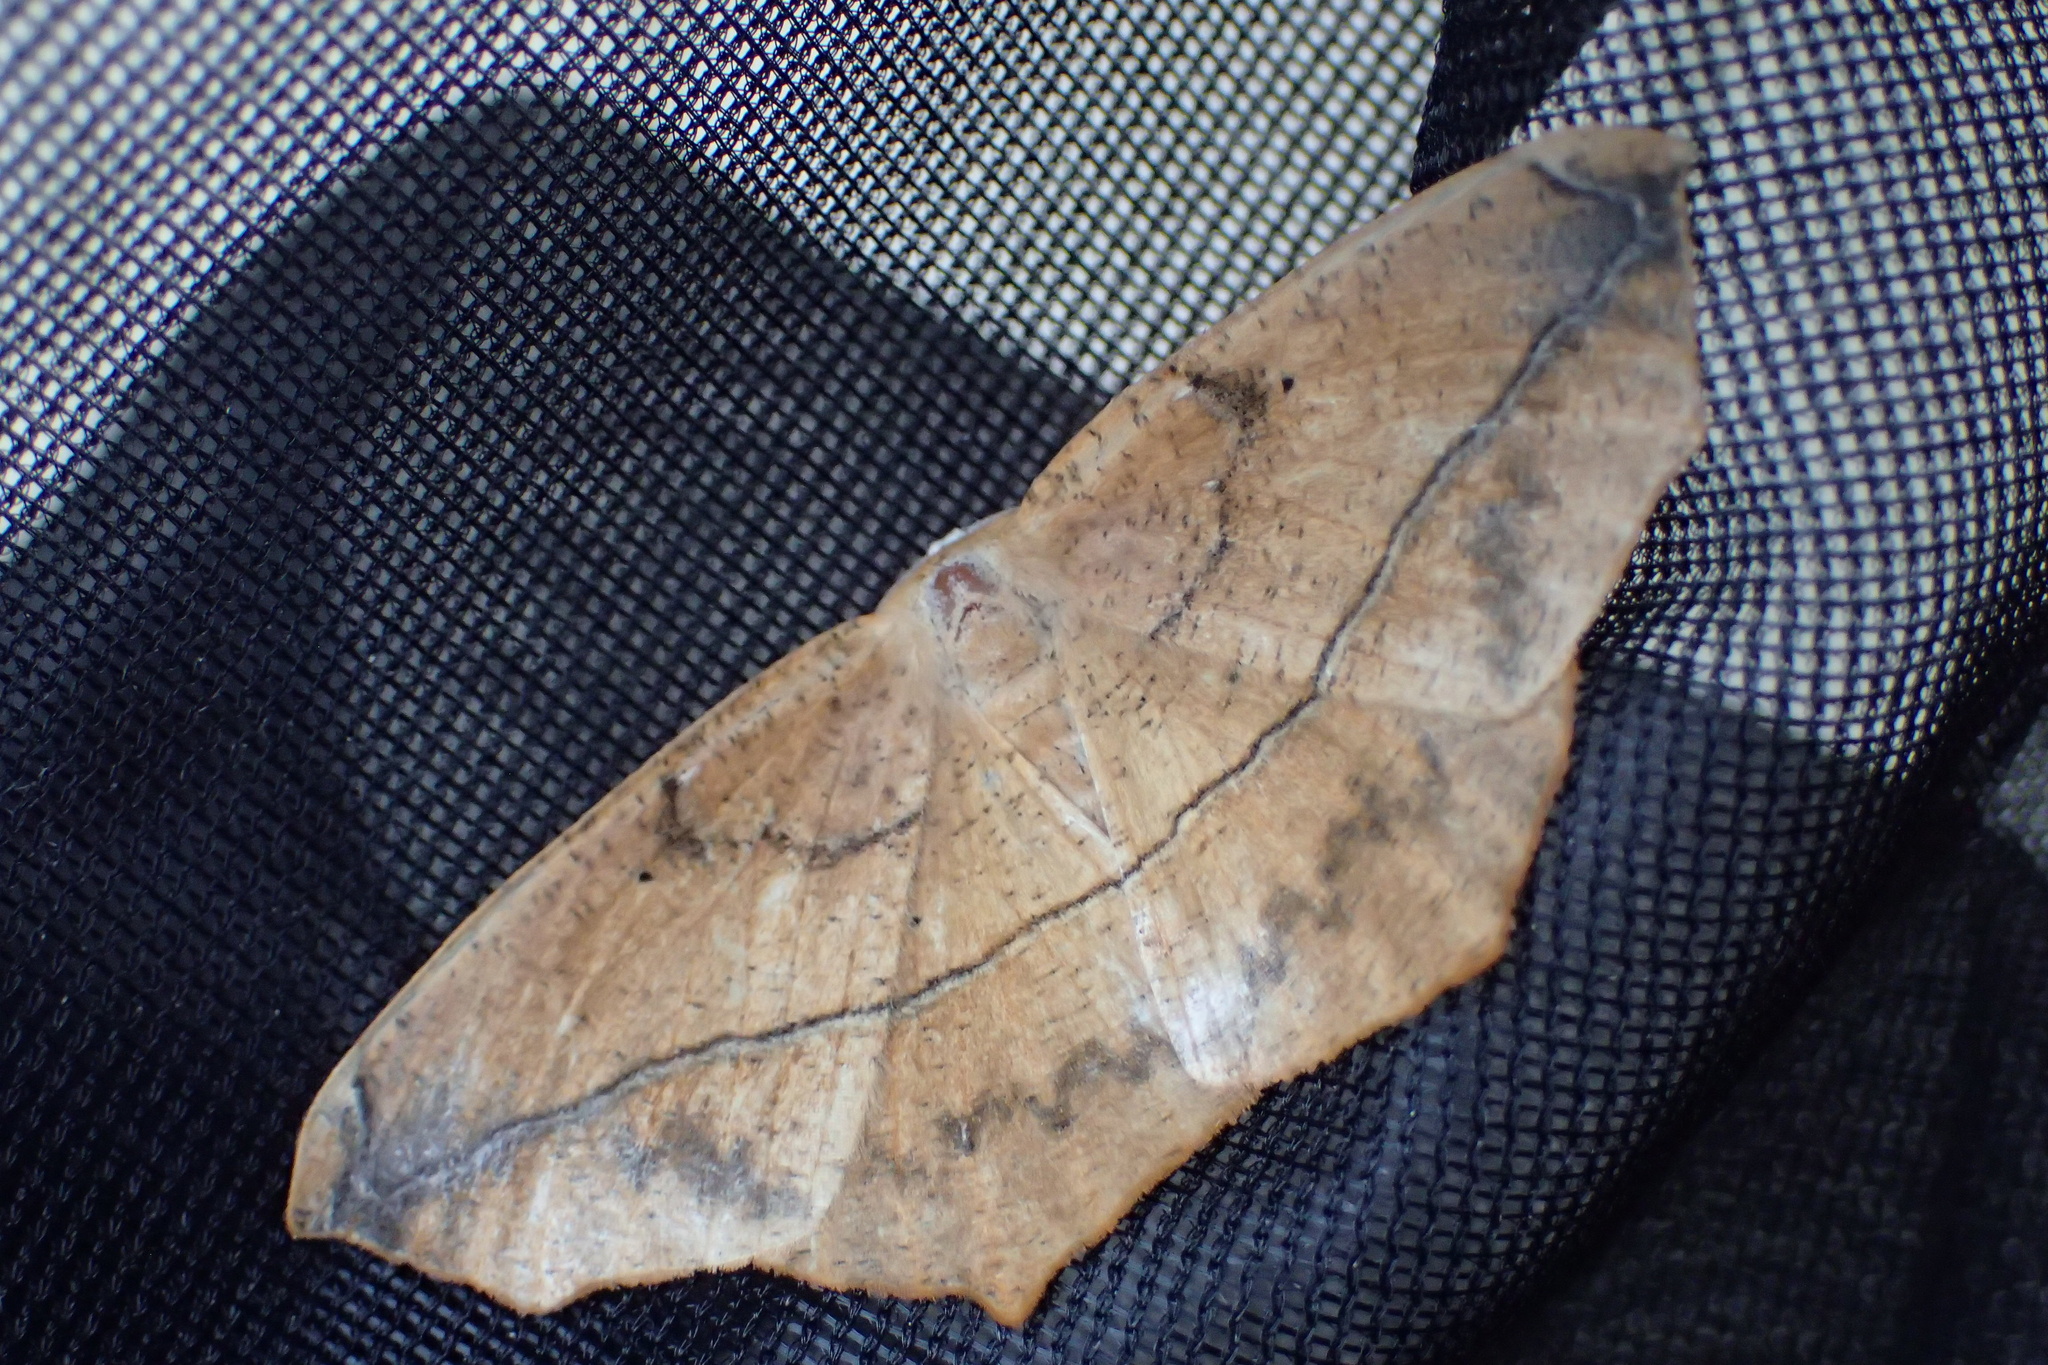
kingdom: Animalia
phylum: Arthropoda
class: Insecta
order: Lepidoptera
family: Geometridae
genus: Prochoerodes
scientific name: Prochoerodes lineola
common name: Large maple spanworm
